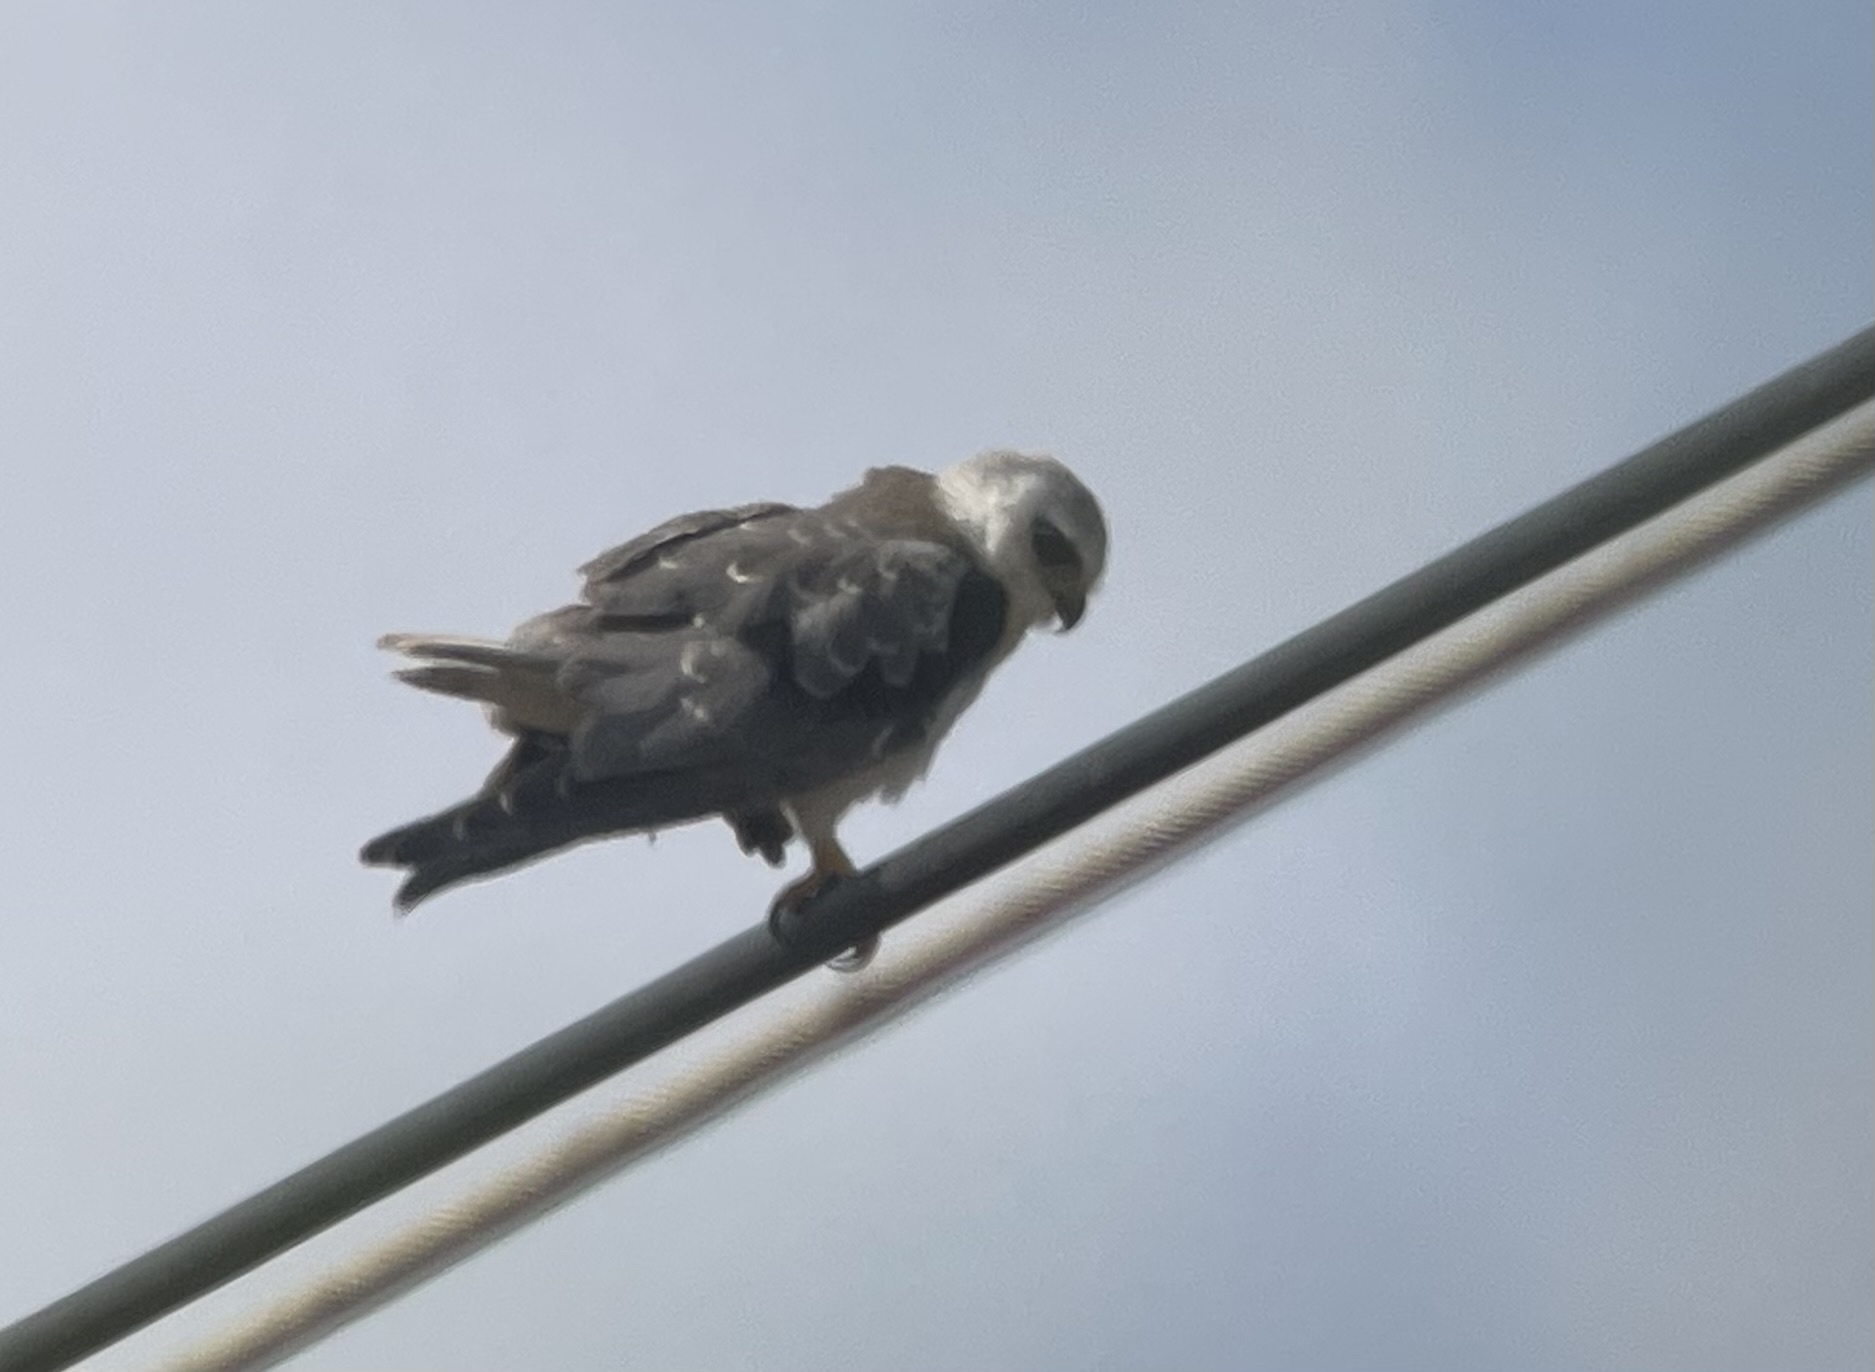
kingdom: Animalia
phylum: Chordata
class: Aves
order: Accipitriformes
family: Accipitridae
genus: Elanus
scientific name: Elanus caeruleus
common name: Black-winged kite
